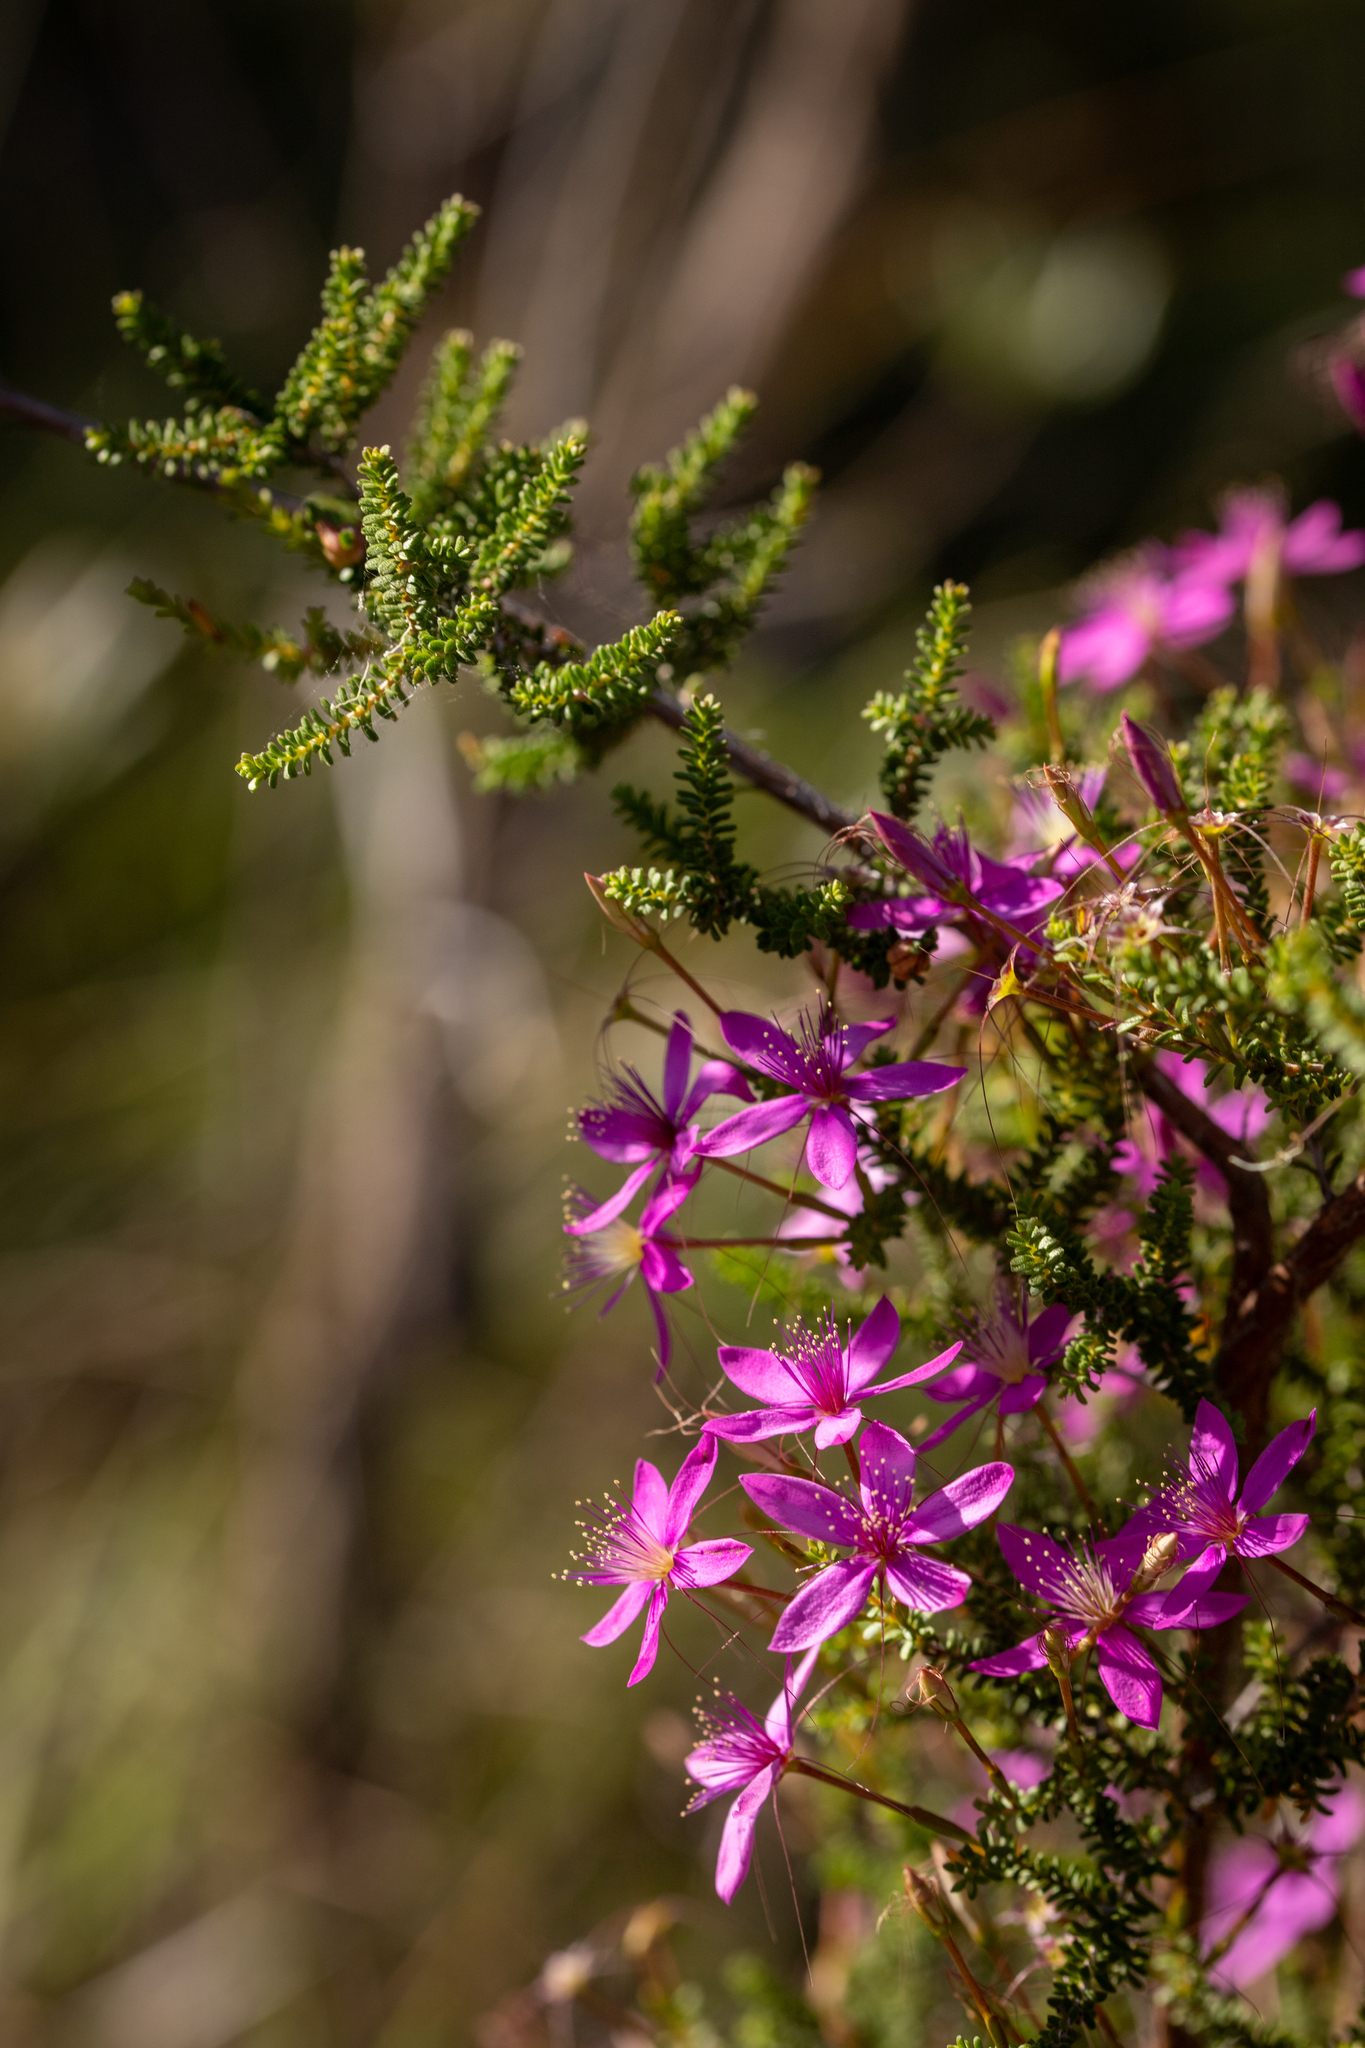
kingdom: Plantae
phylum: Tracheophyta
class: Magnoliopsida
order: Myrtales
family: Myrtaceae
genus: Calytrix
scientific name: Calytrix fraseri
